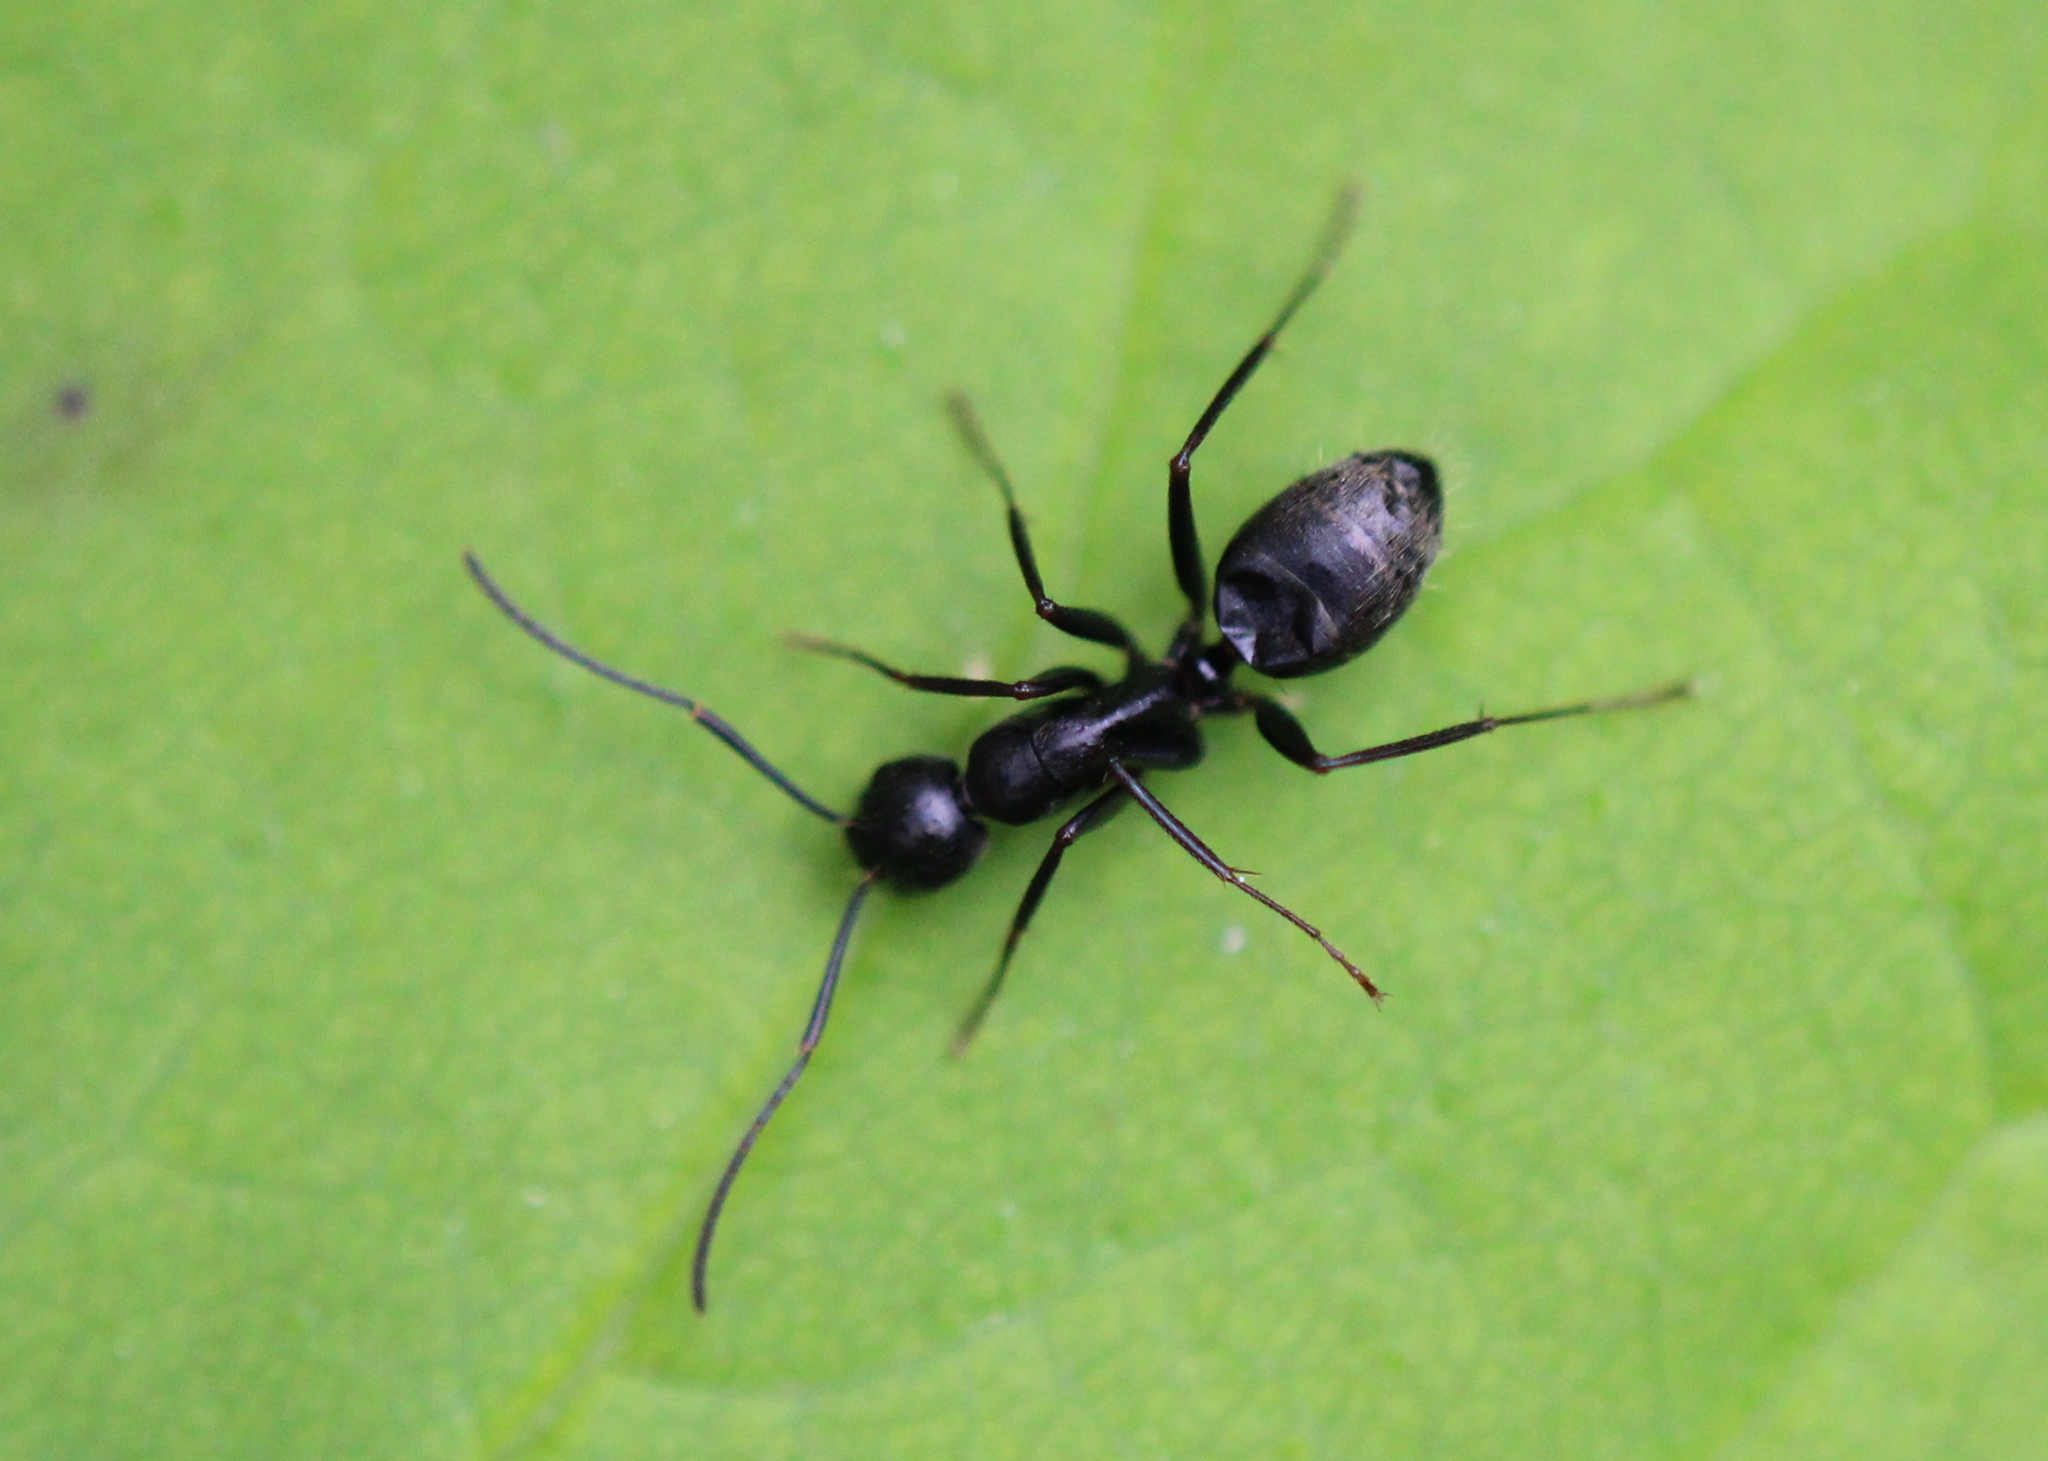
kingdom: Animalia
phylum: Arthropoda
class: Insecta
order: Hymenoptera
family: Formicidae
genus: Camponotus
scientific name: Camponotus pennsylvanicus
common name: Black carpenter ant
